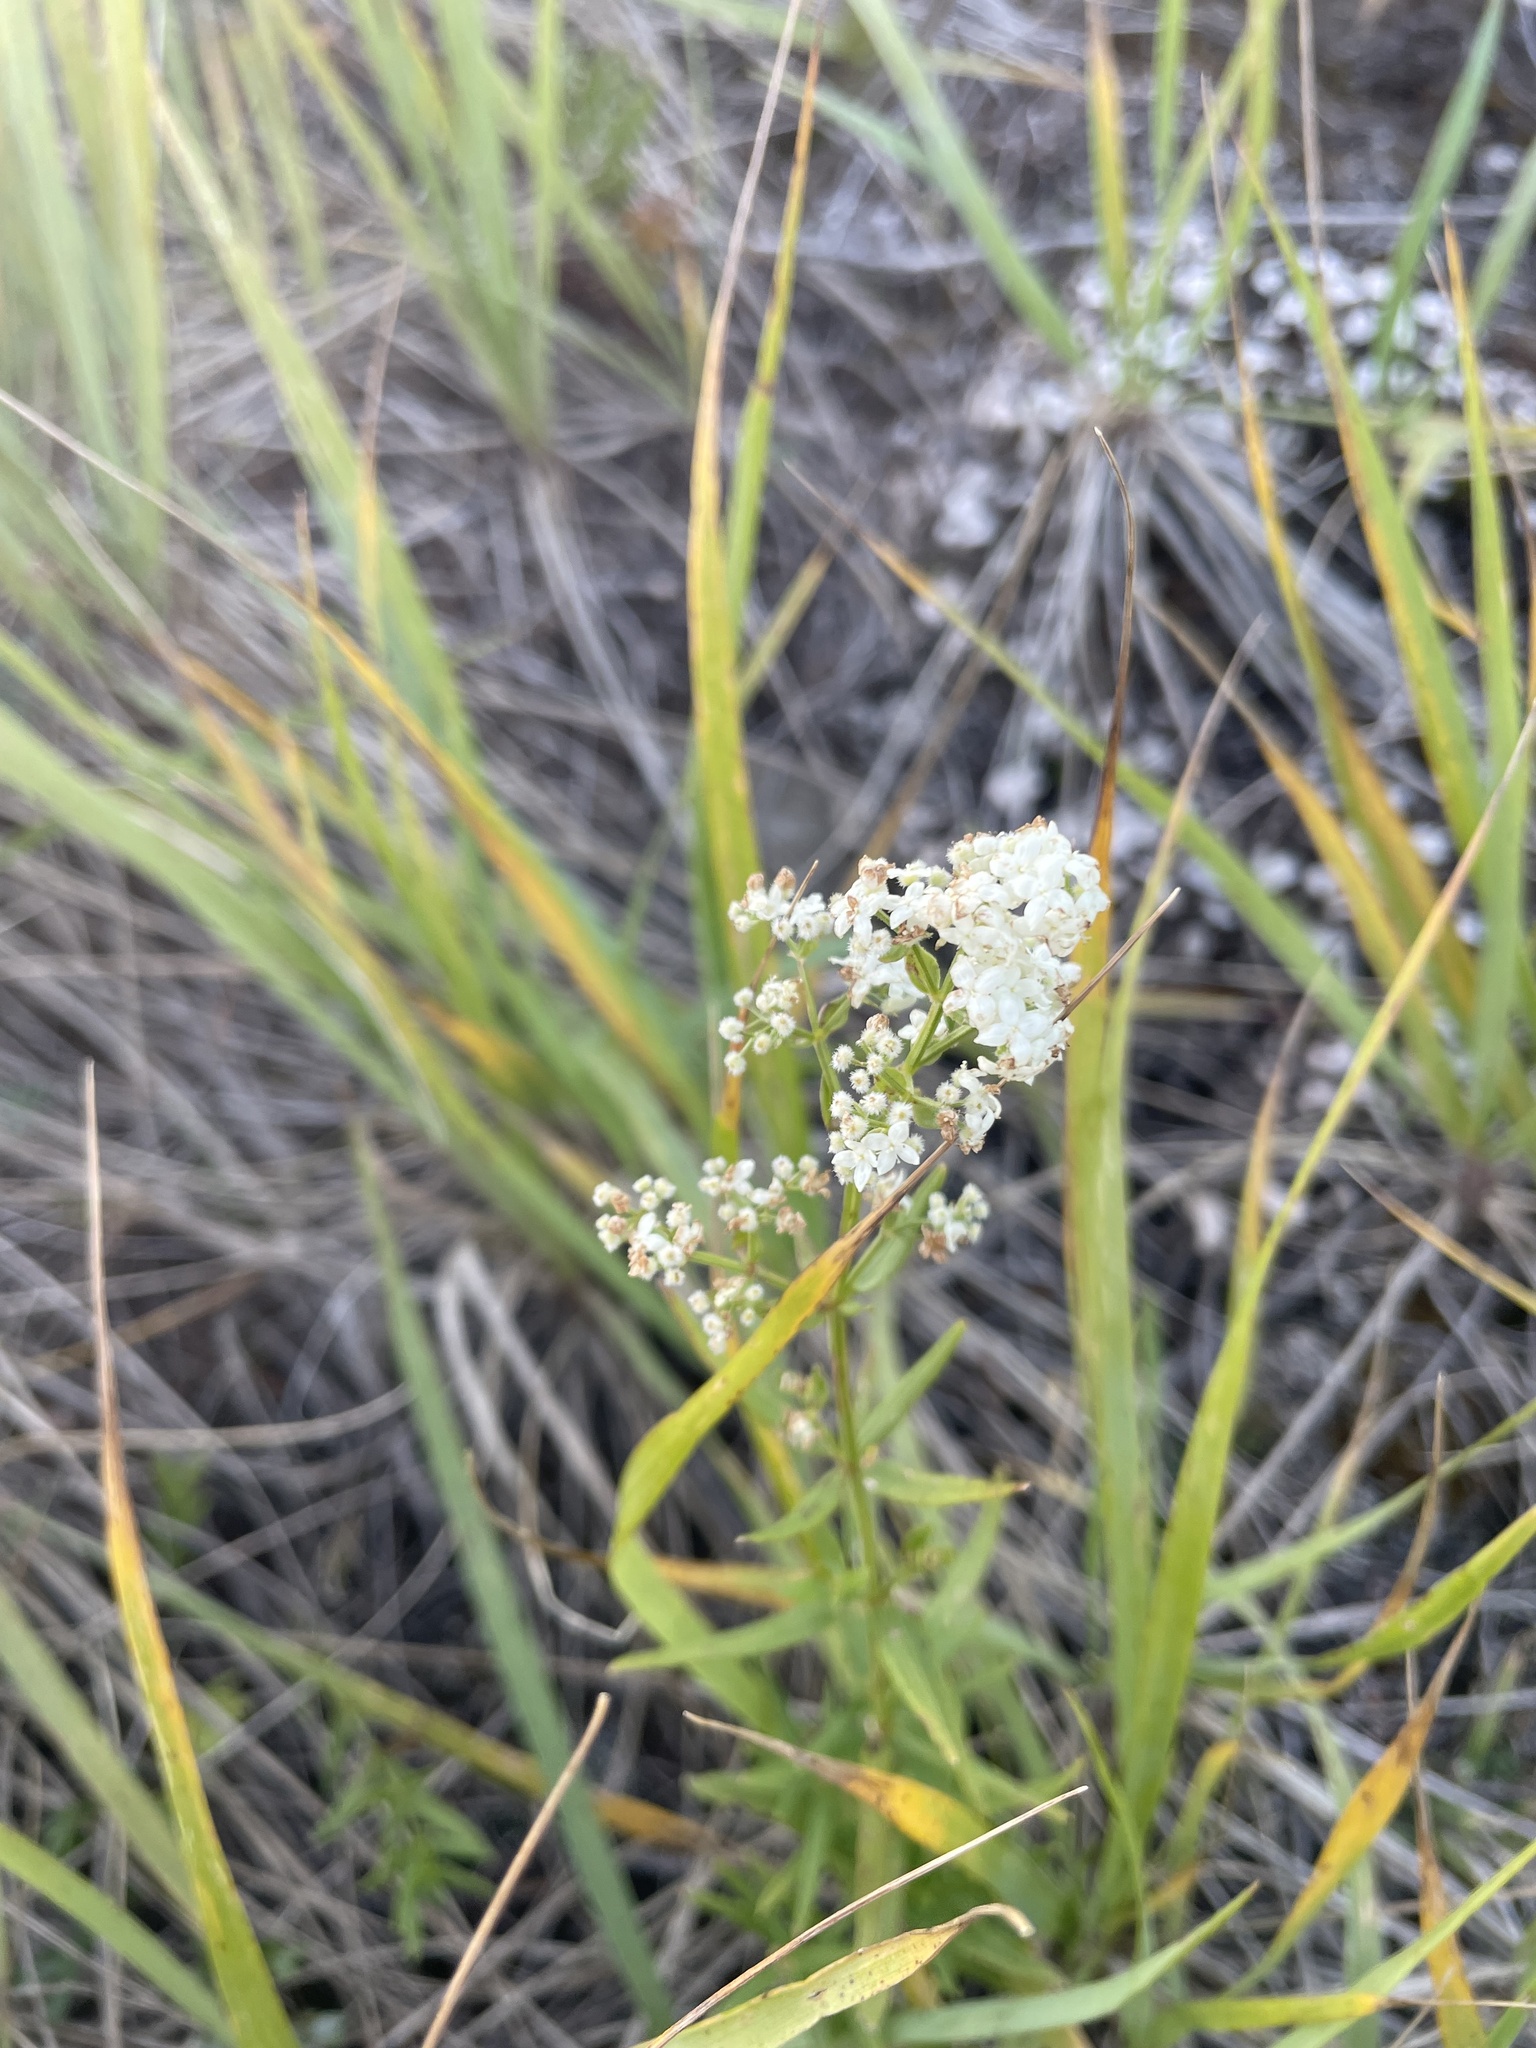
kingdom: Plantae
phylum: Tracheophyta
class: Magnoliopsida
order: Gentianales
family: Rubiaceae
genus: Galium
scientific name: Galium boreale
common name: Northern bedstraw
